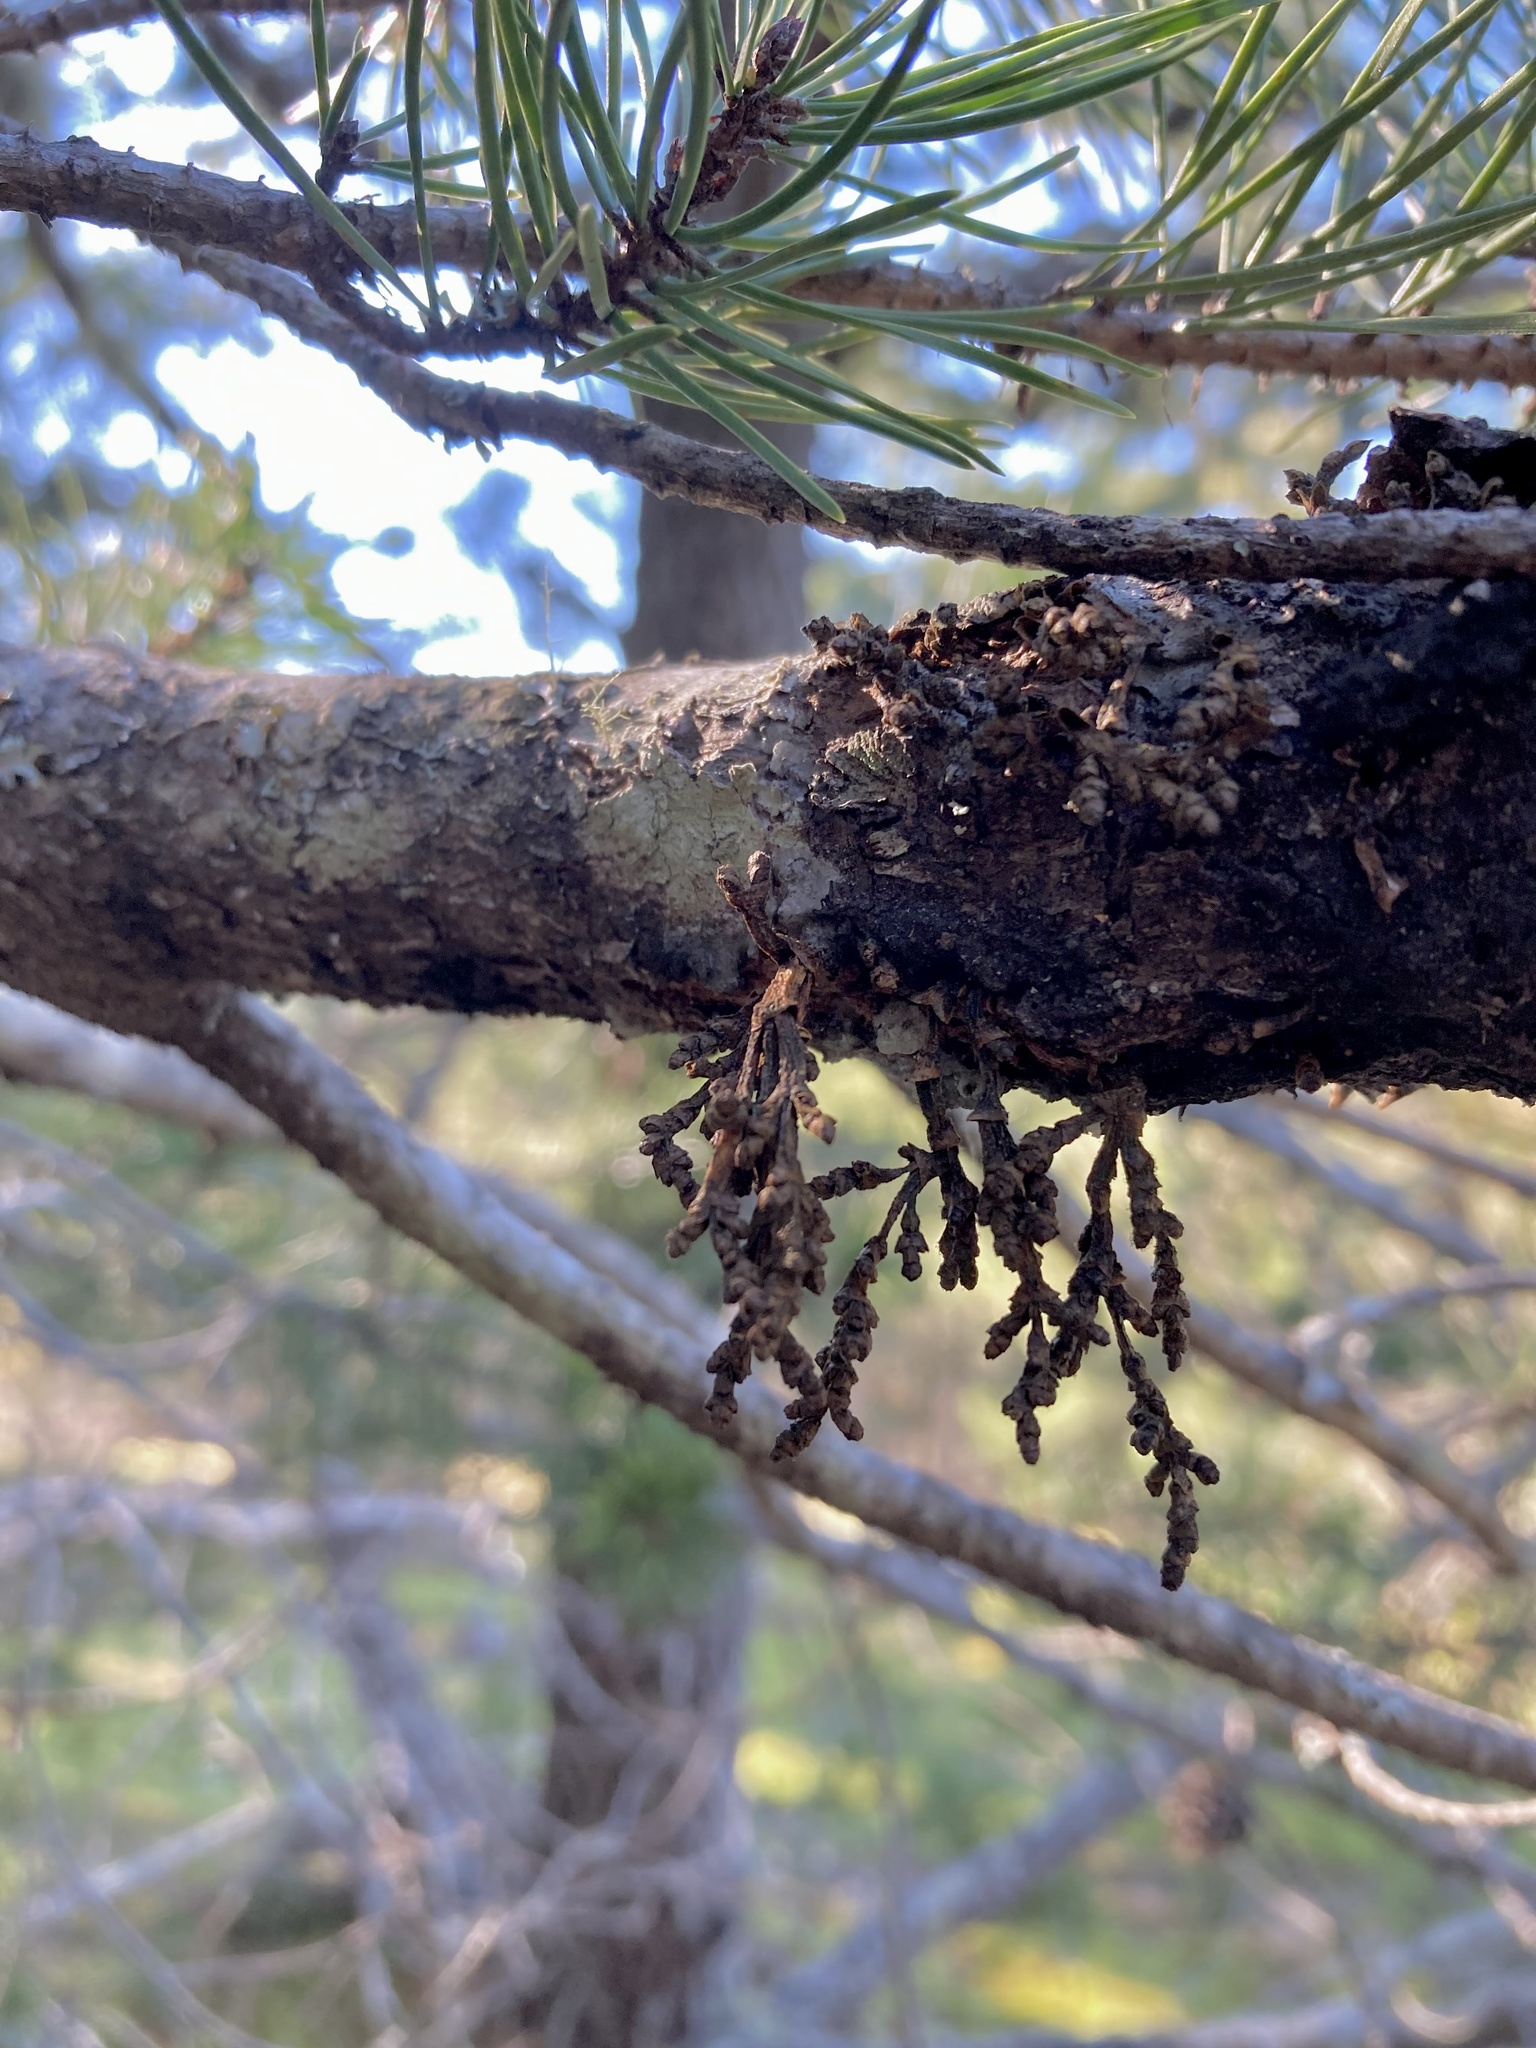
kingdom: Plantae
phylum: Tracheophyta
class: Magnoliopsida
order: Santalales
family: Viscaceae
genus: Arceuthobium
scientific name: Arceuthobium campylopodum
